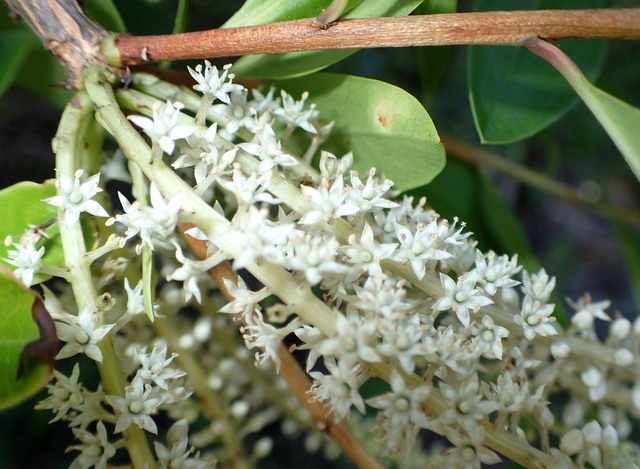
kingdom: Plantae
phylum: Tracheophyta
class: Magnoliopsida
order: Ericales
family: Cyrillaceae
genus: Cyrilla
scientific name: Cyrilla racemiflora
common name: Black titi
